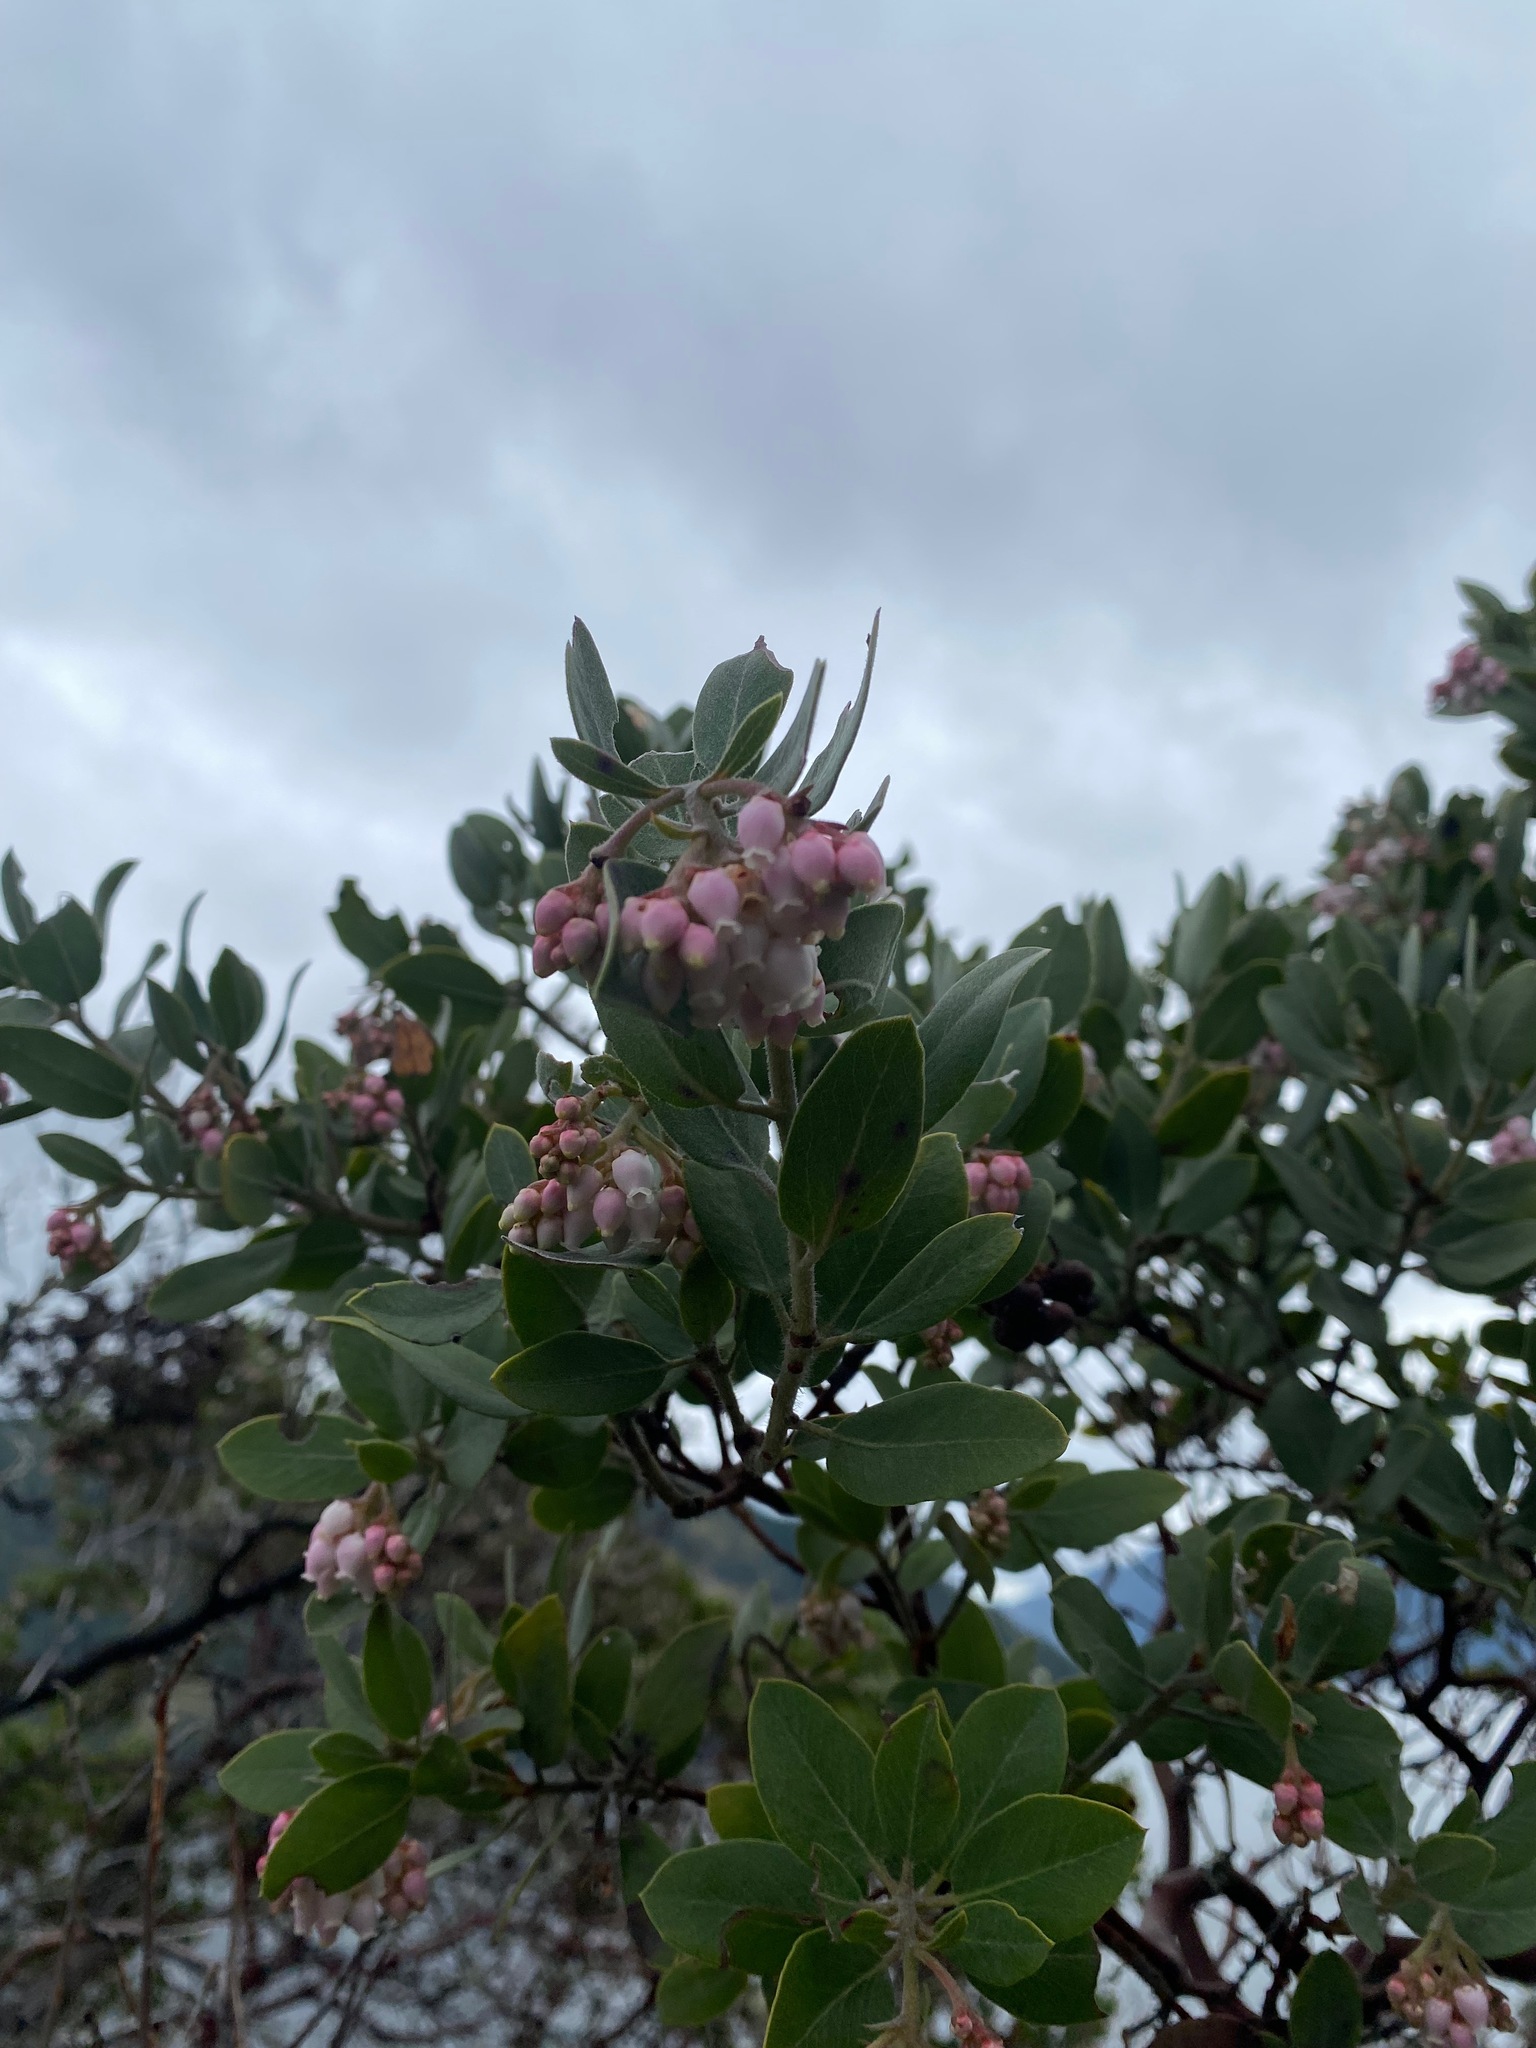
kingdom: Plantae
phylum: Tracheophyta
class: Magnoliopsida
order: Ericales
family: Ericaceae
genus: Arctostaphylos
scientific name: Arctostaphylos columbiana
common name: Bristly bearberry
